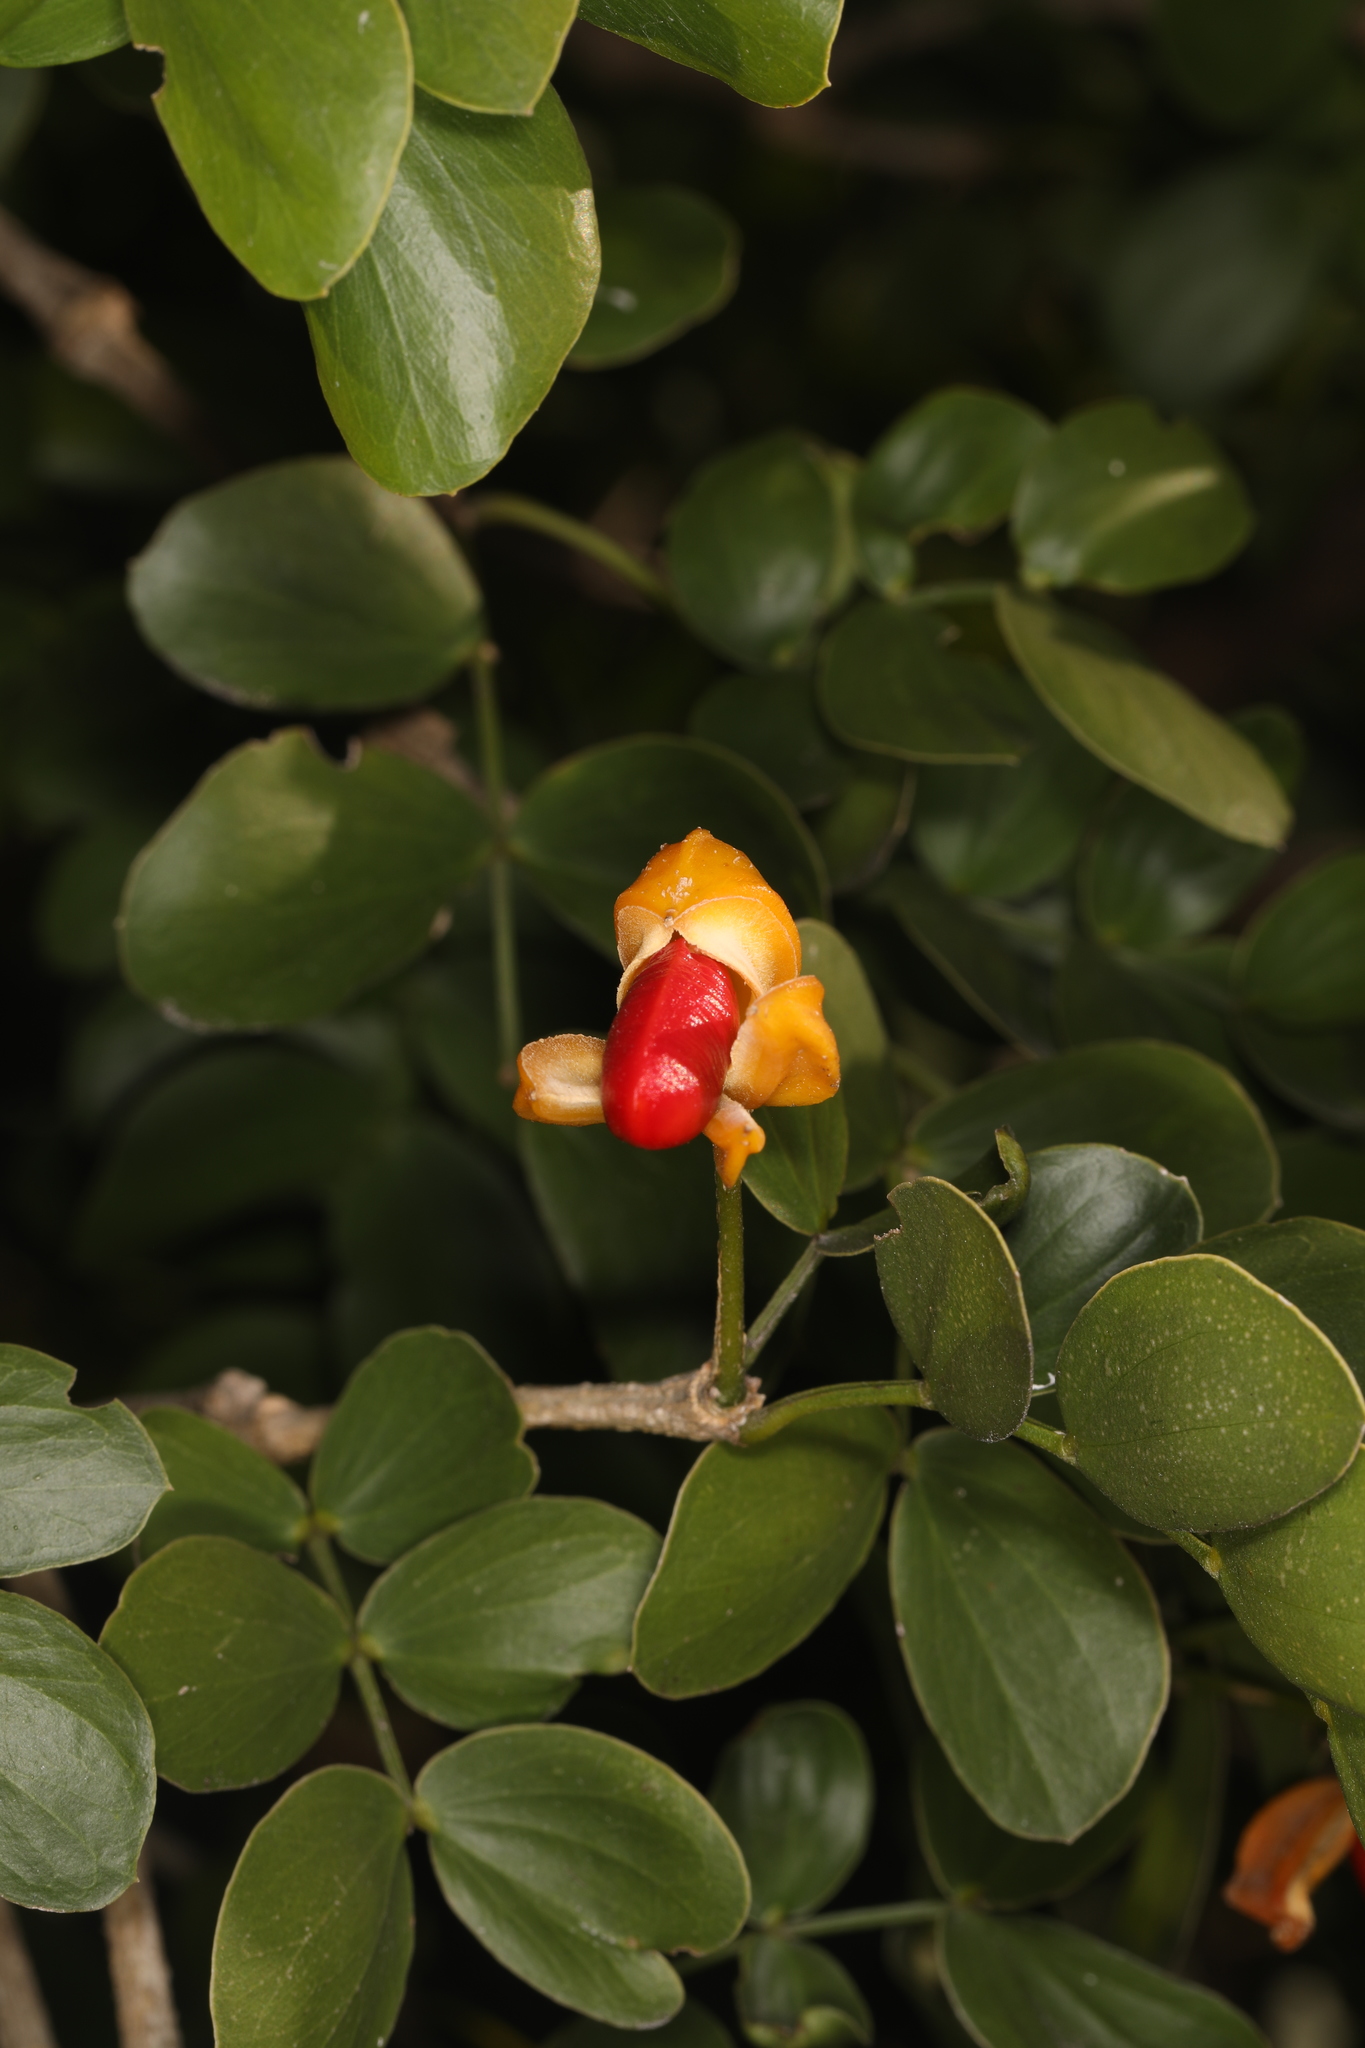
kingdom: Plantae
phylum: Tracheophyta
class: Magnoliopsida
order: Zygophyllales
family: Zygophyllaceae
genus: Guaiacum
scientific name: Guaiacum sanctum
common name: Holywood
